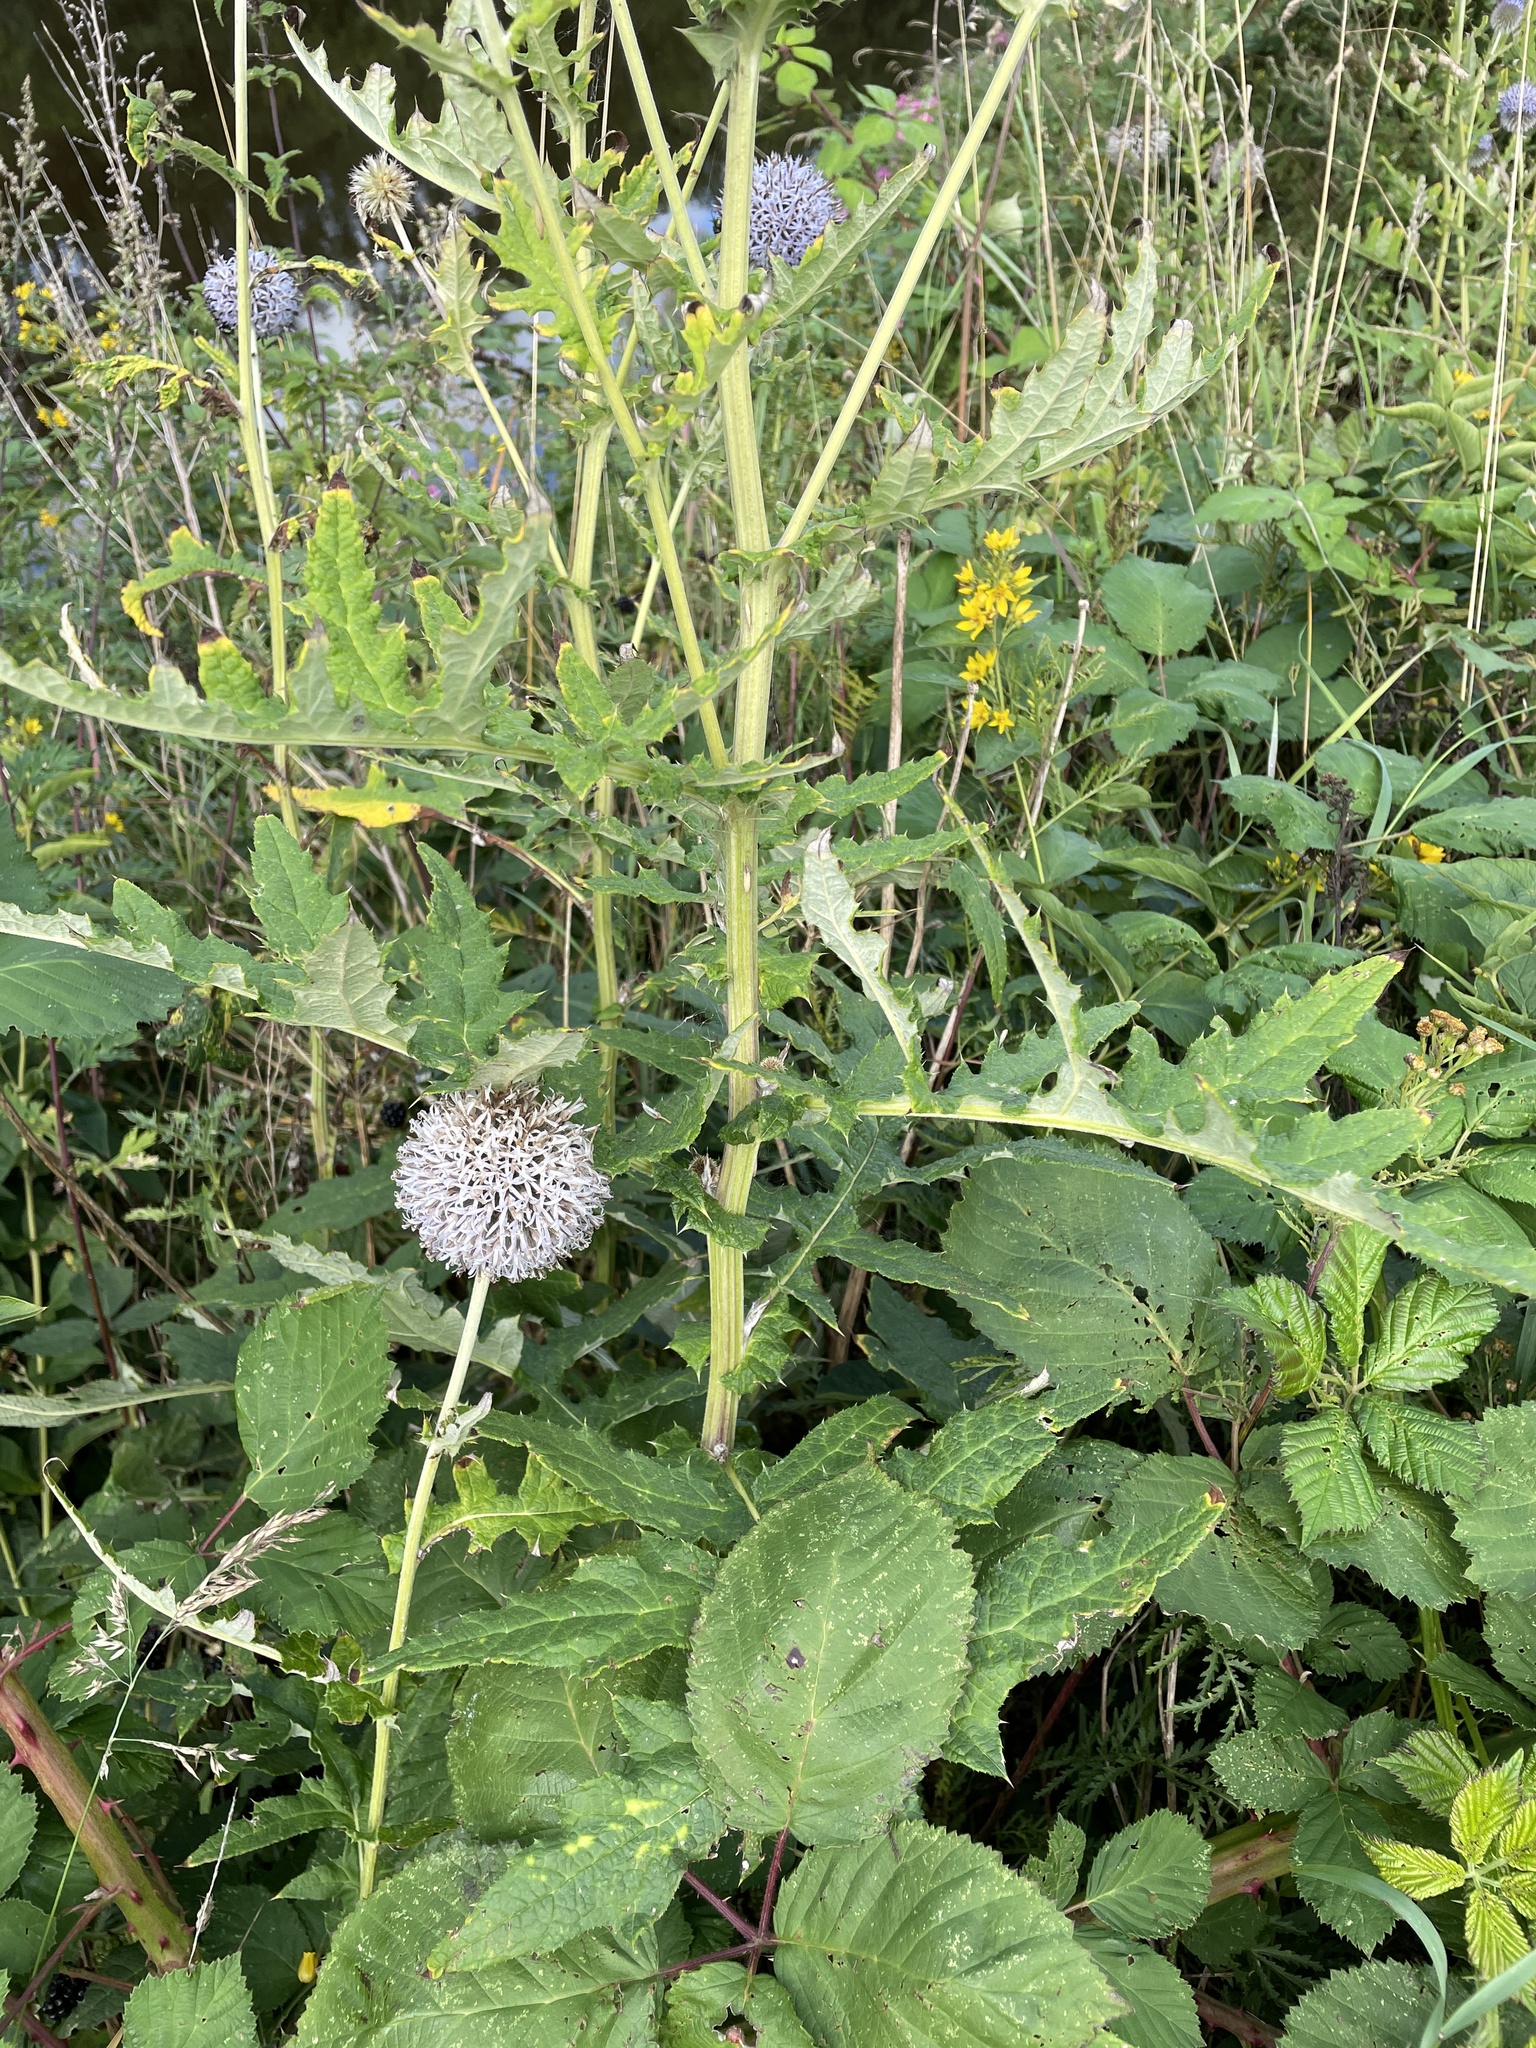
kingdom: Plantae
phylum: Tracheophyta
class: Magnoliopsida
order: Asterales
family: Asteraceae
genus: Echinops
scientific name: Echinops bannaticus
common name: Blue globe-thistle
